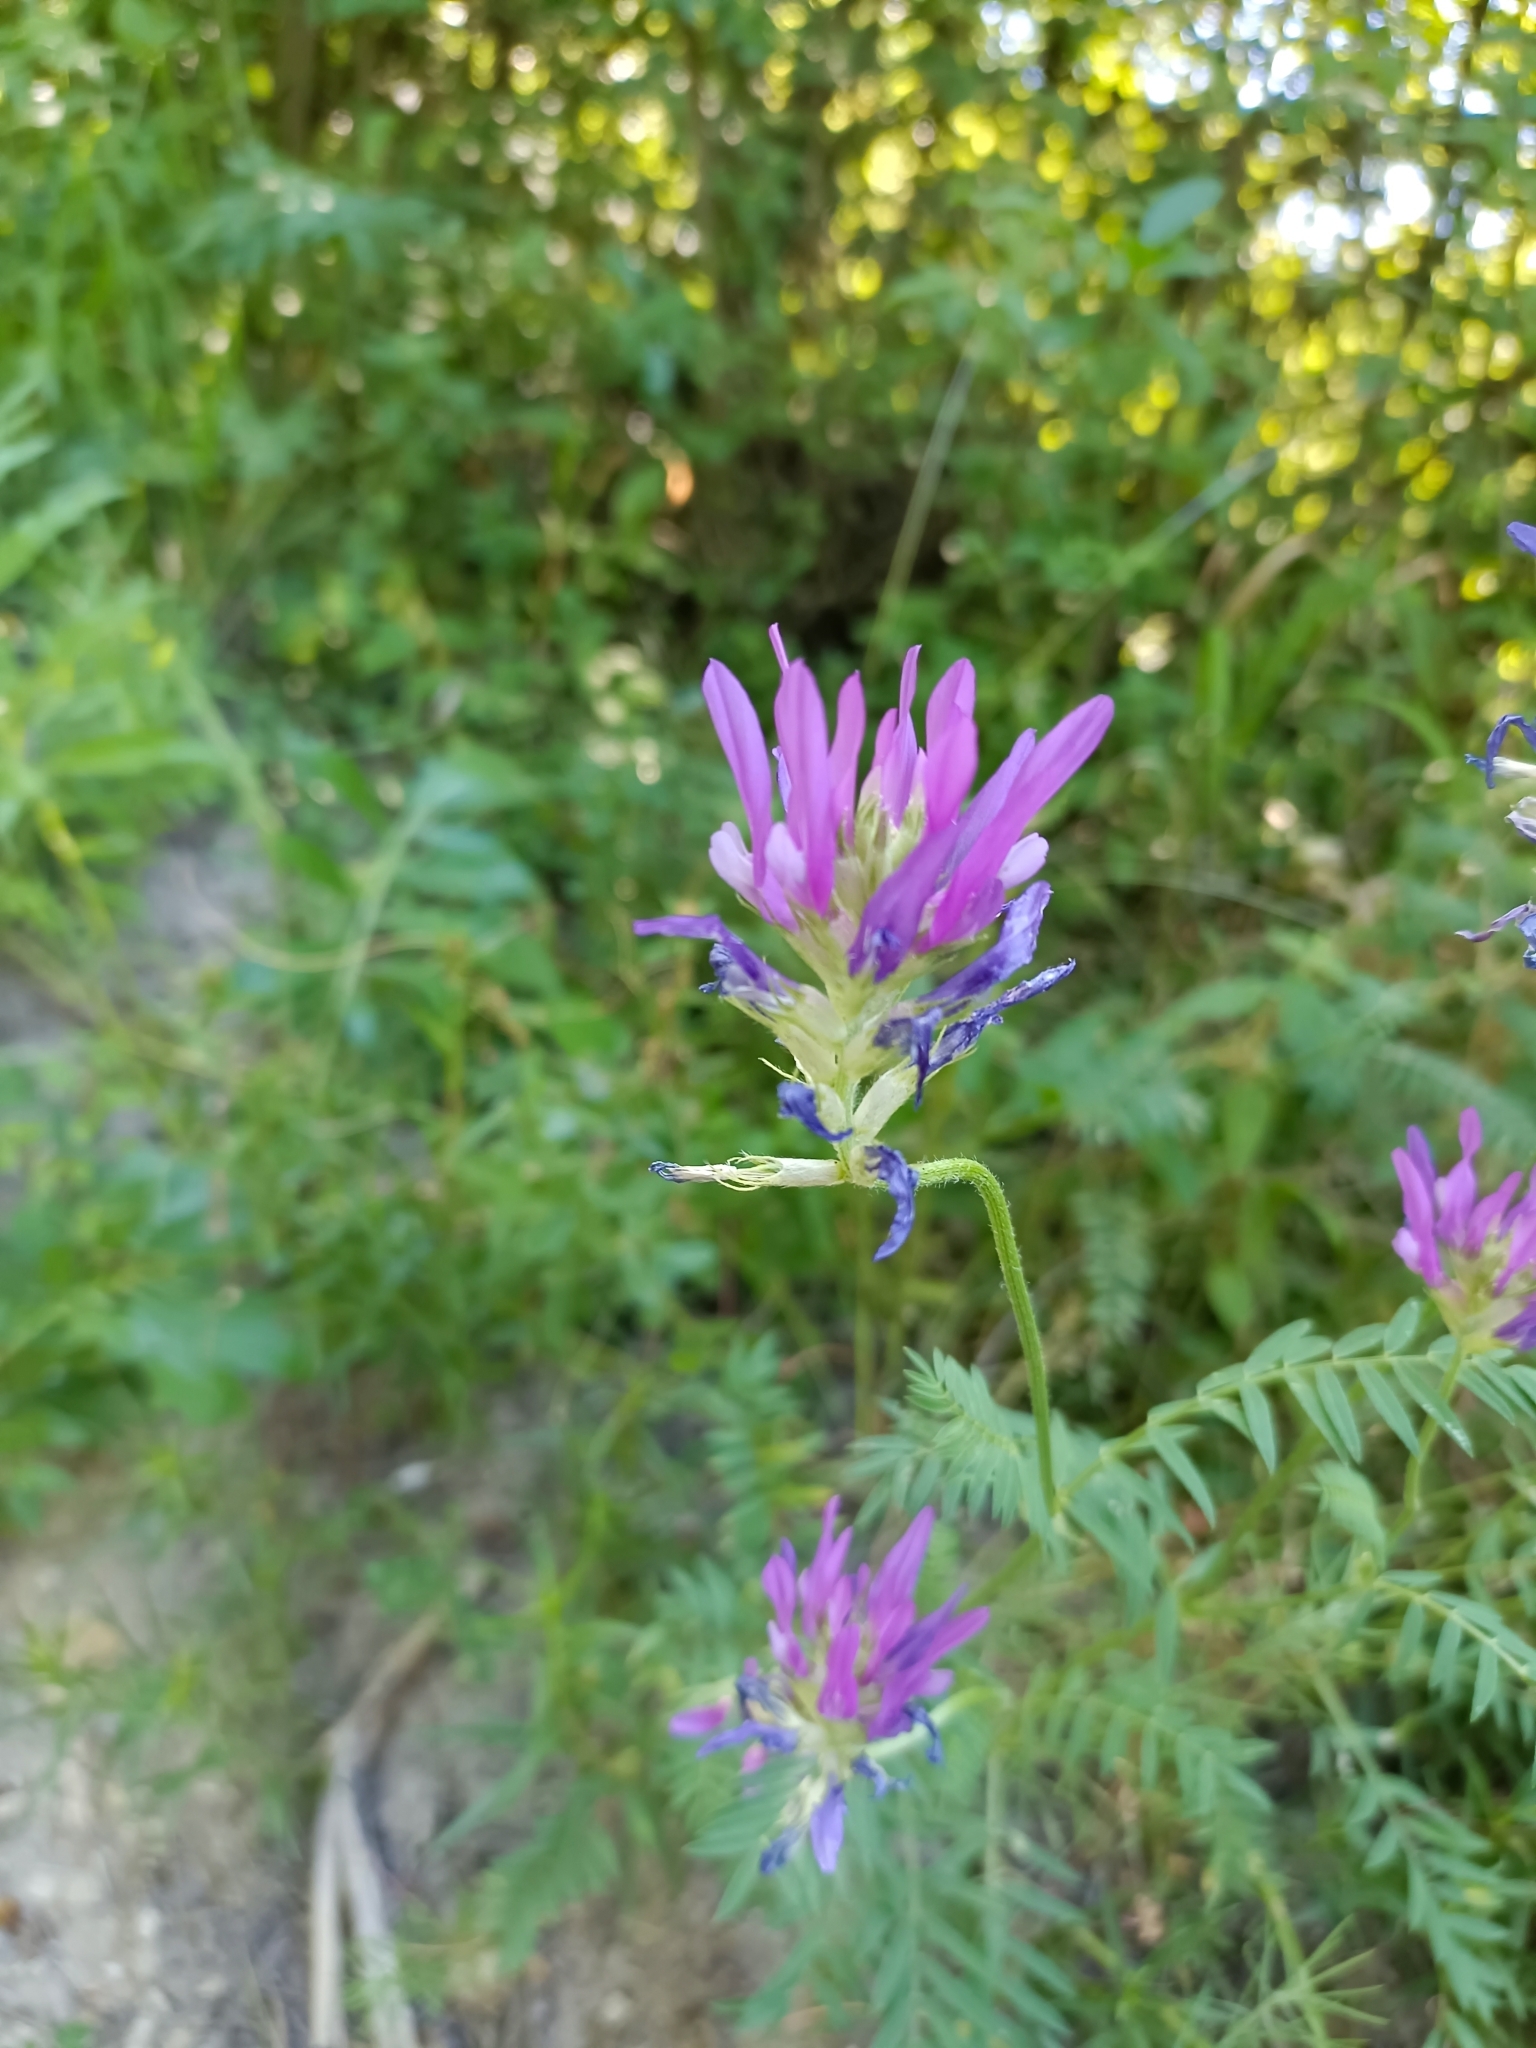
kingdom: Plantae
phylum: Tracheophyta
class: Magnoliopsida
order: Fabales
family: Fabaceae
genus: Astragalus
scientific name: Astragalus onobrychis
